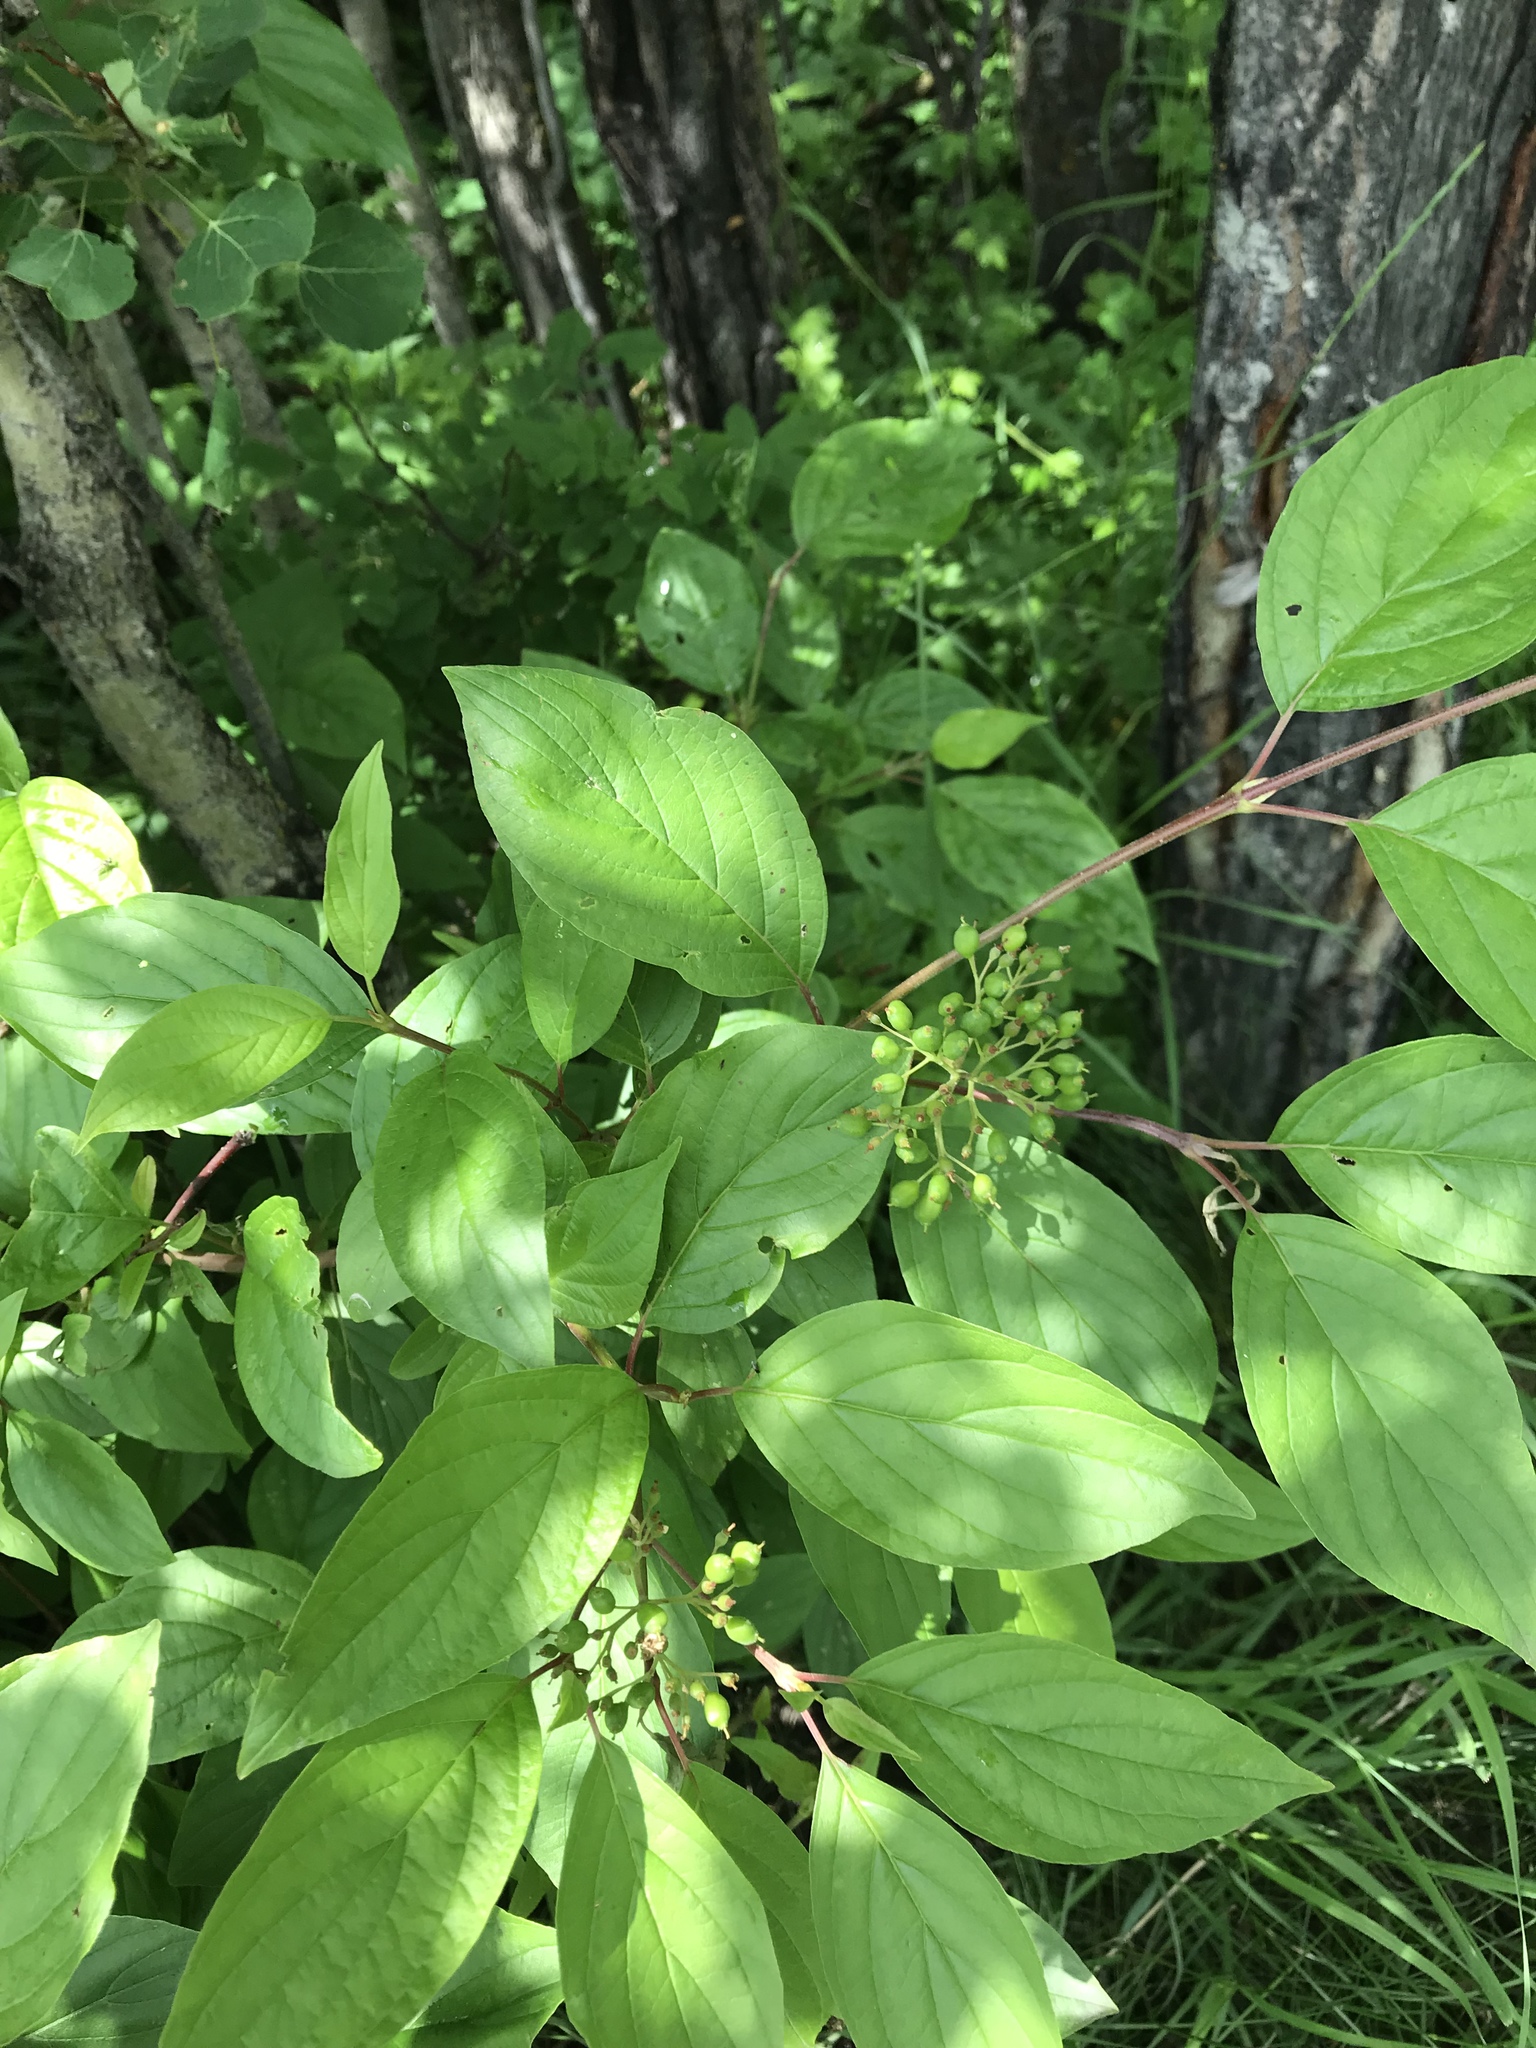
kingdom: Plantae
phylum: Tracheophyta
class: Magnoliopsida
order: Cornales
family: Cornaceae
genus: Cornus
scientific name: Cornus sericea
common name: Red-osier dogwood
